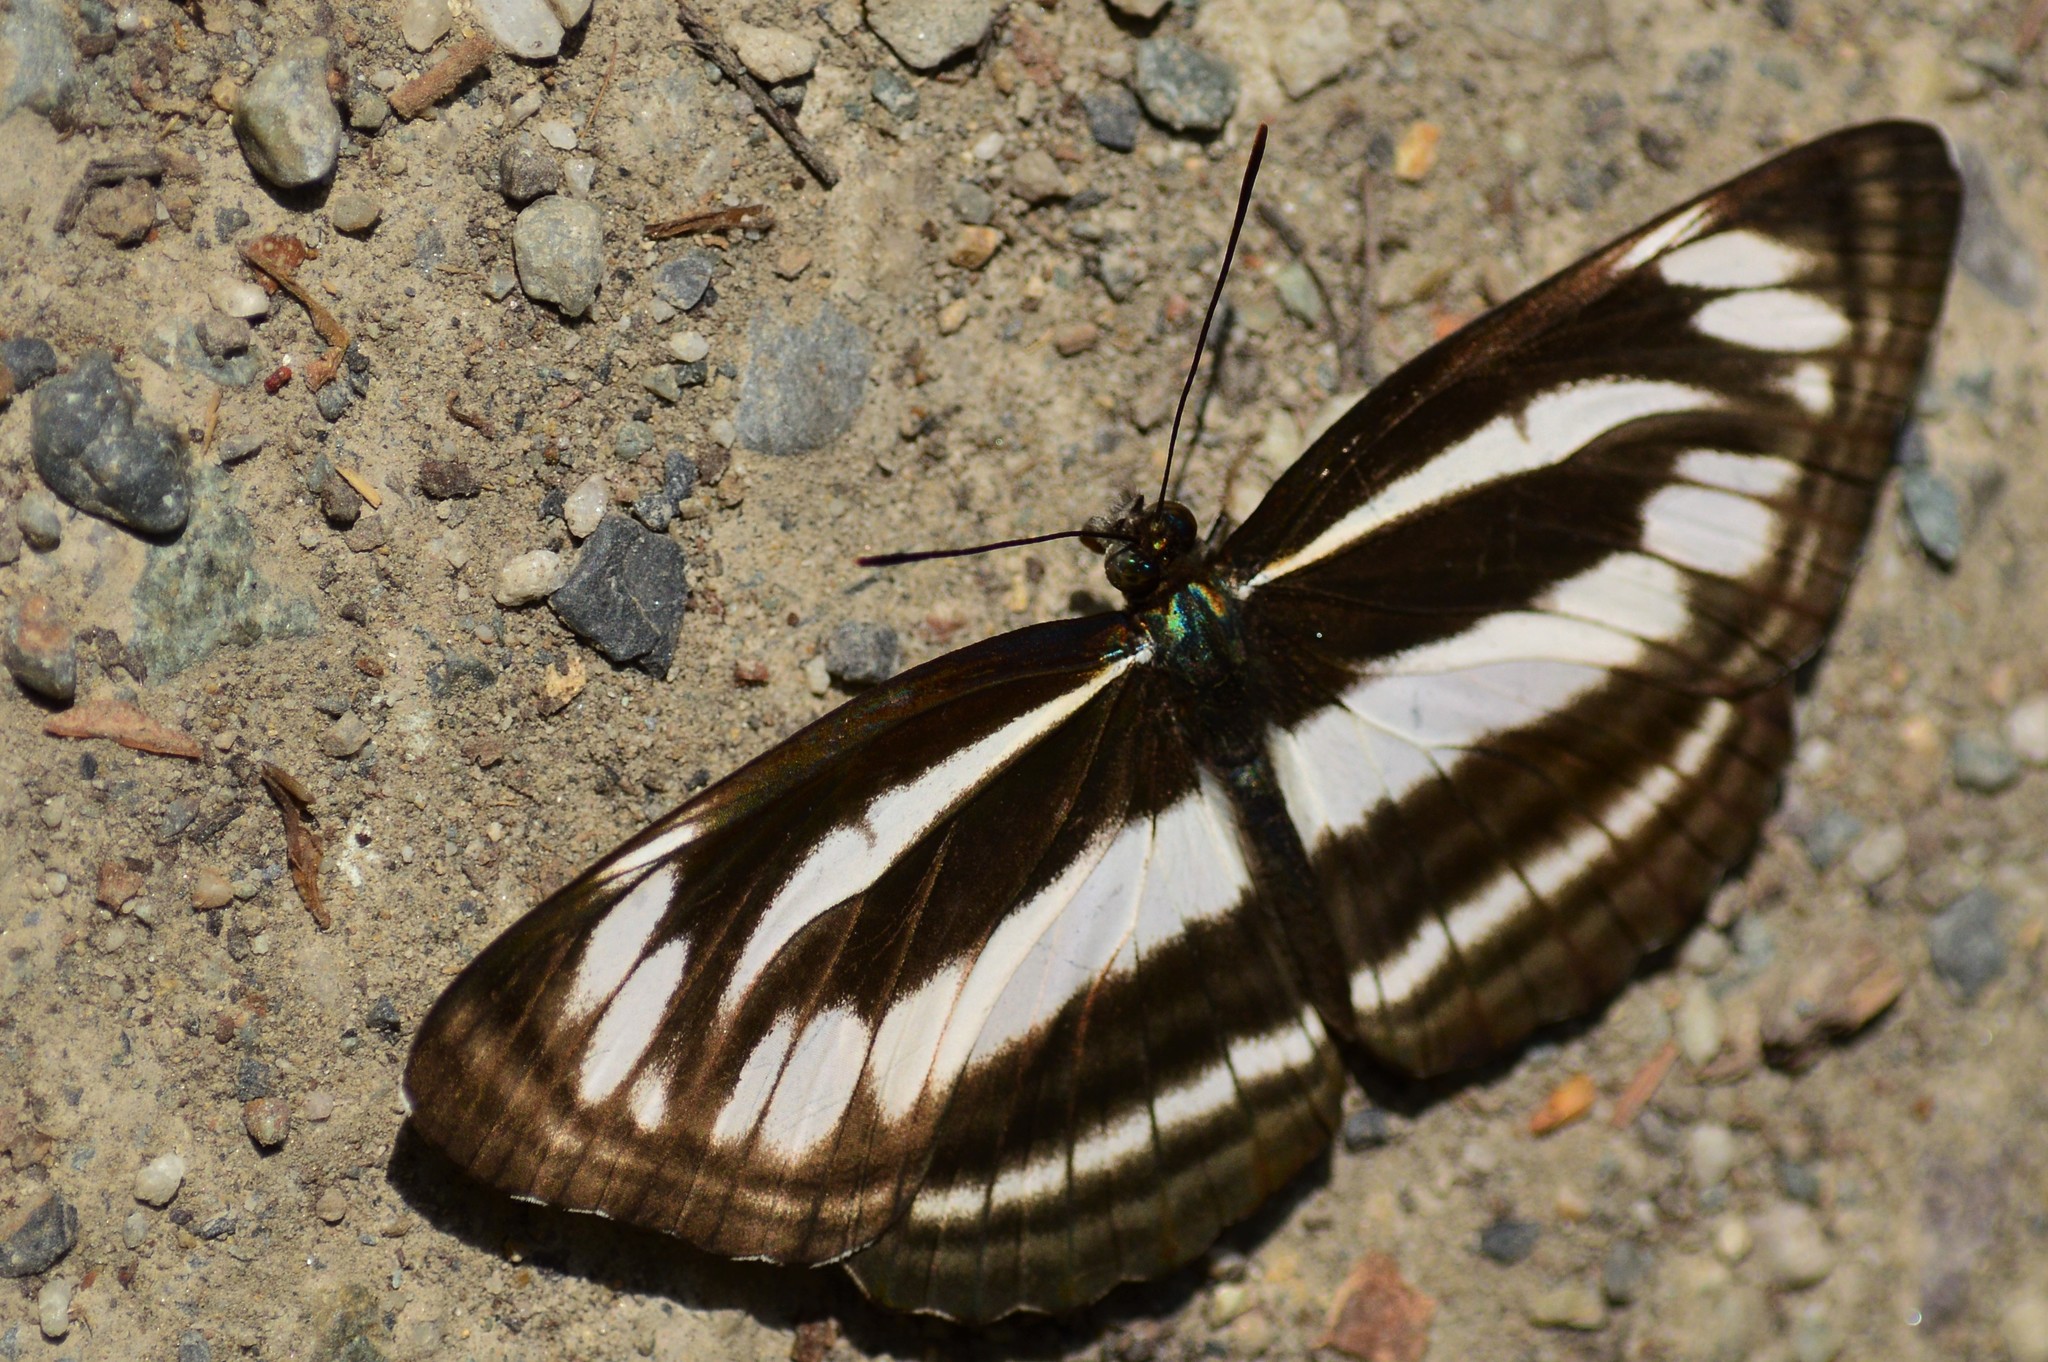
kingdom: Animalia
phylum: Arthropoda
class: Insecta
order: Lepidoptera
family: Nymphalidae
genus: Neptis
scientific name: Neptis sankara
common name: Broad-banded sailer
